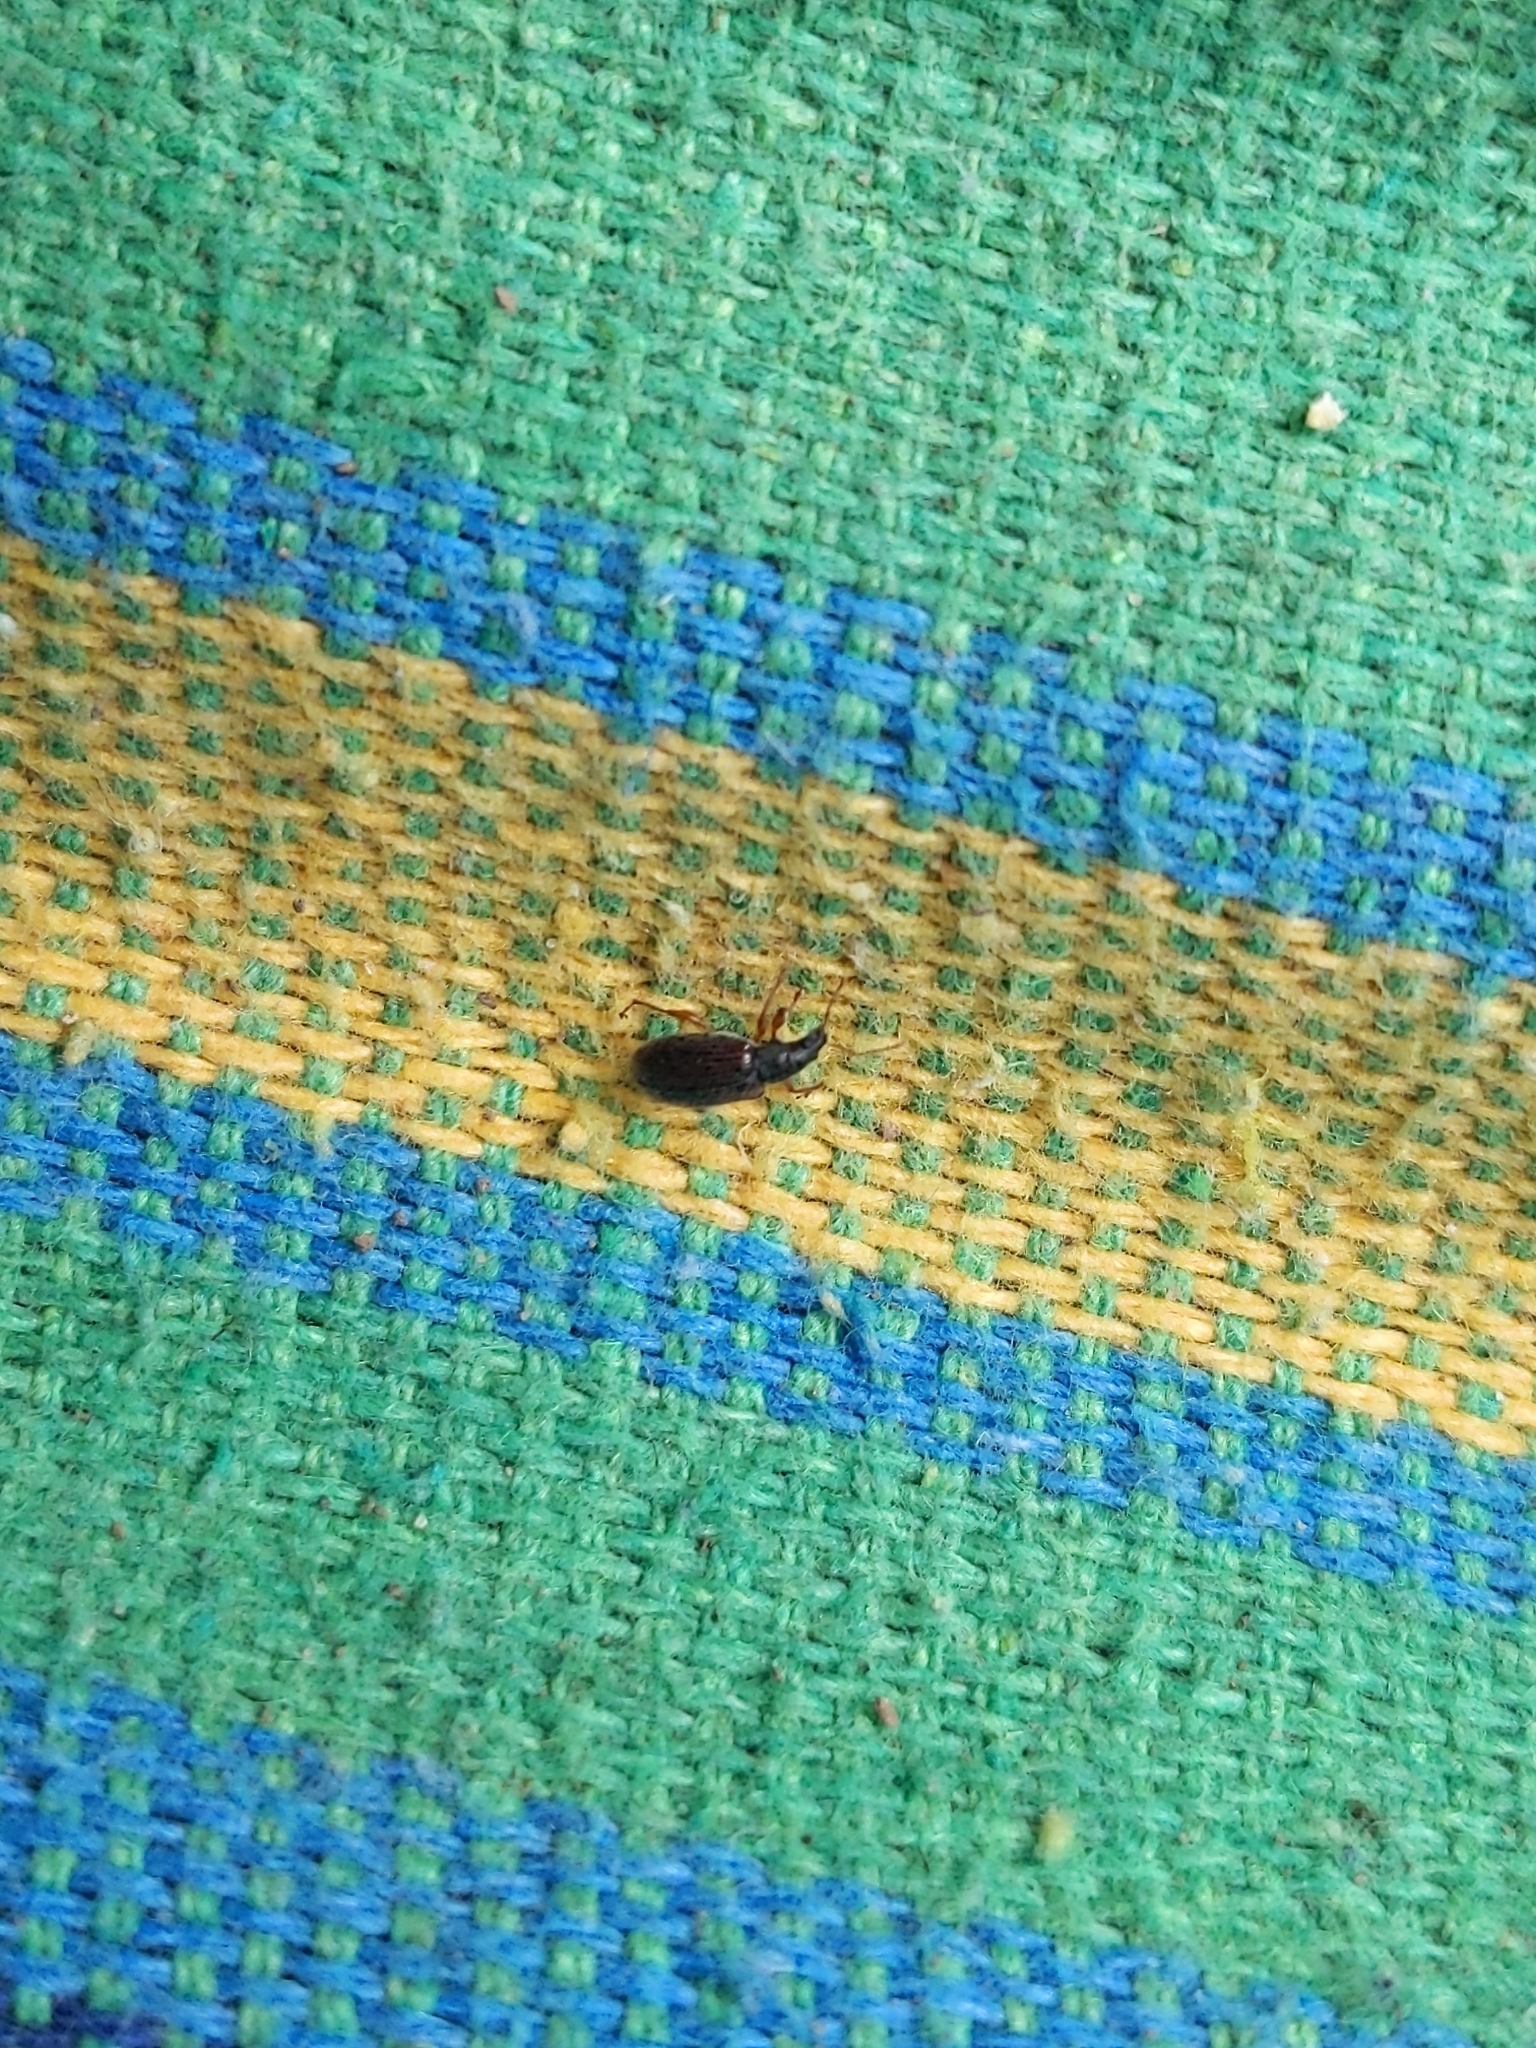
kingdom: Animalia
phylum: Arthropoda
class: Insecta
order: Coleoptera
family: Curculionidae
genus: Phyllobius
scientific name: Phyllobius oblongus
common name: Brown leaf weevil
